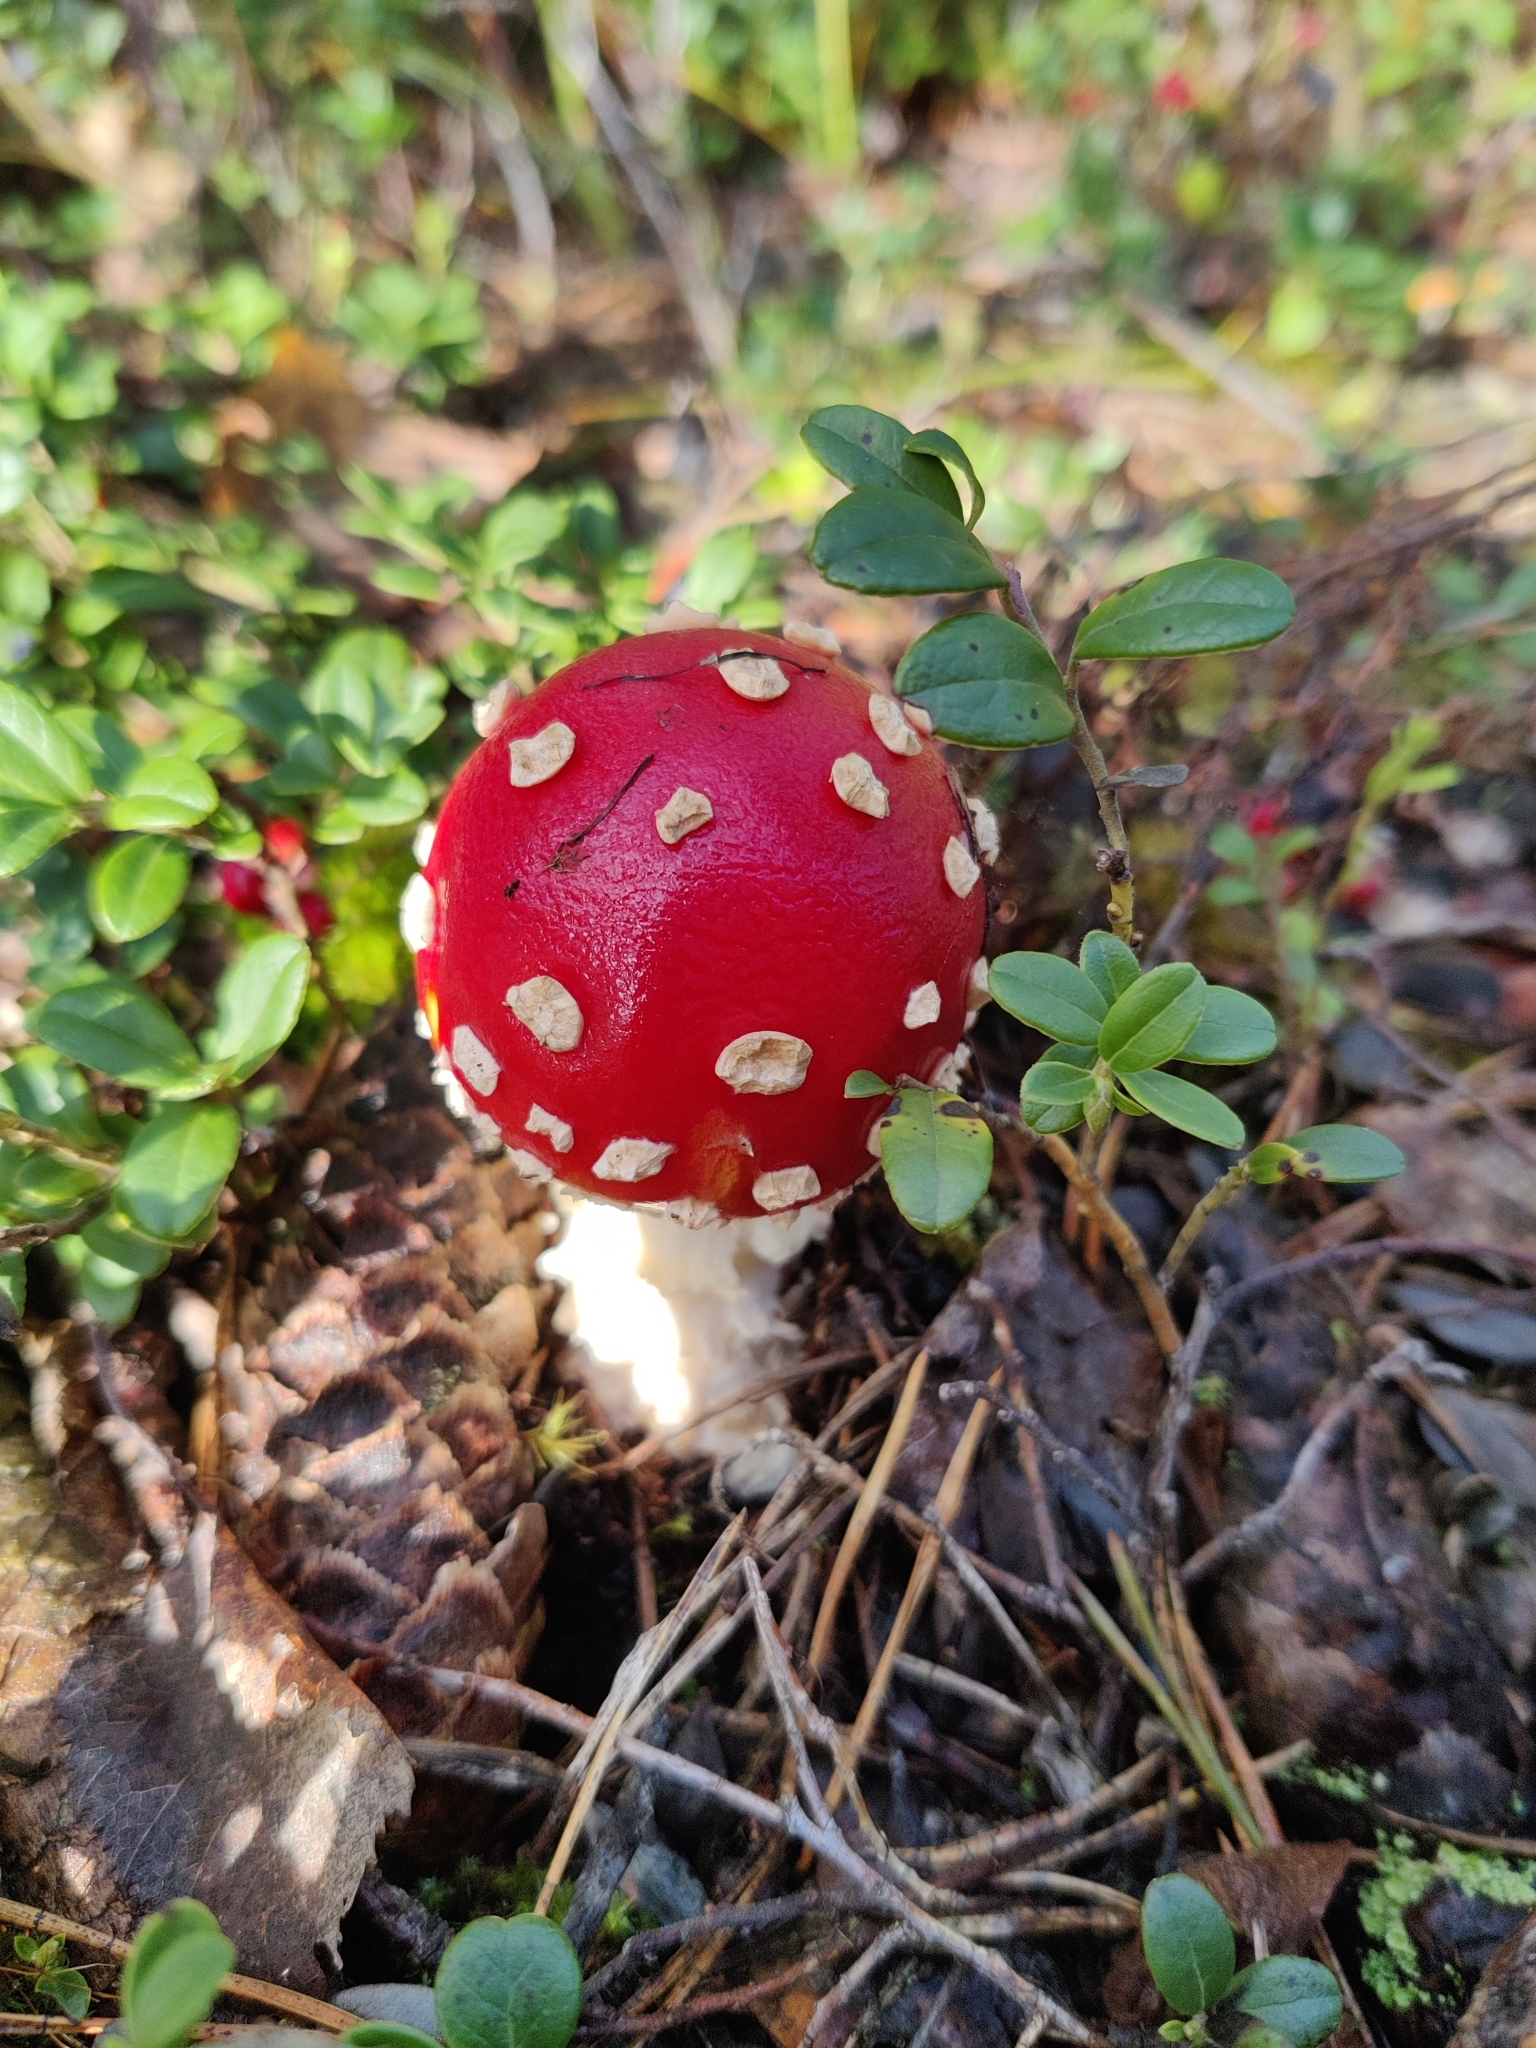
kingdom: Fungi
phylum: Basidiomycota
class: Agaricomycetes
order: Agaricales
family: Amanitaceae
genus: Amanita
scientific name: Amanita muscaria
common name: Fly agaric
